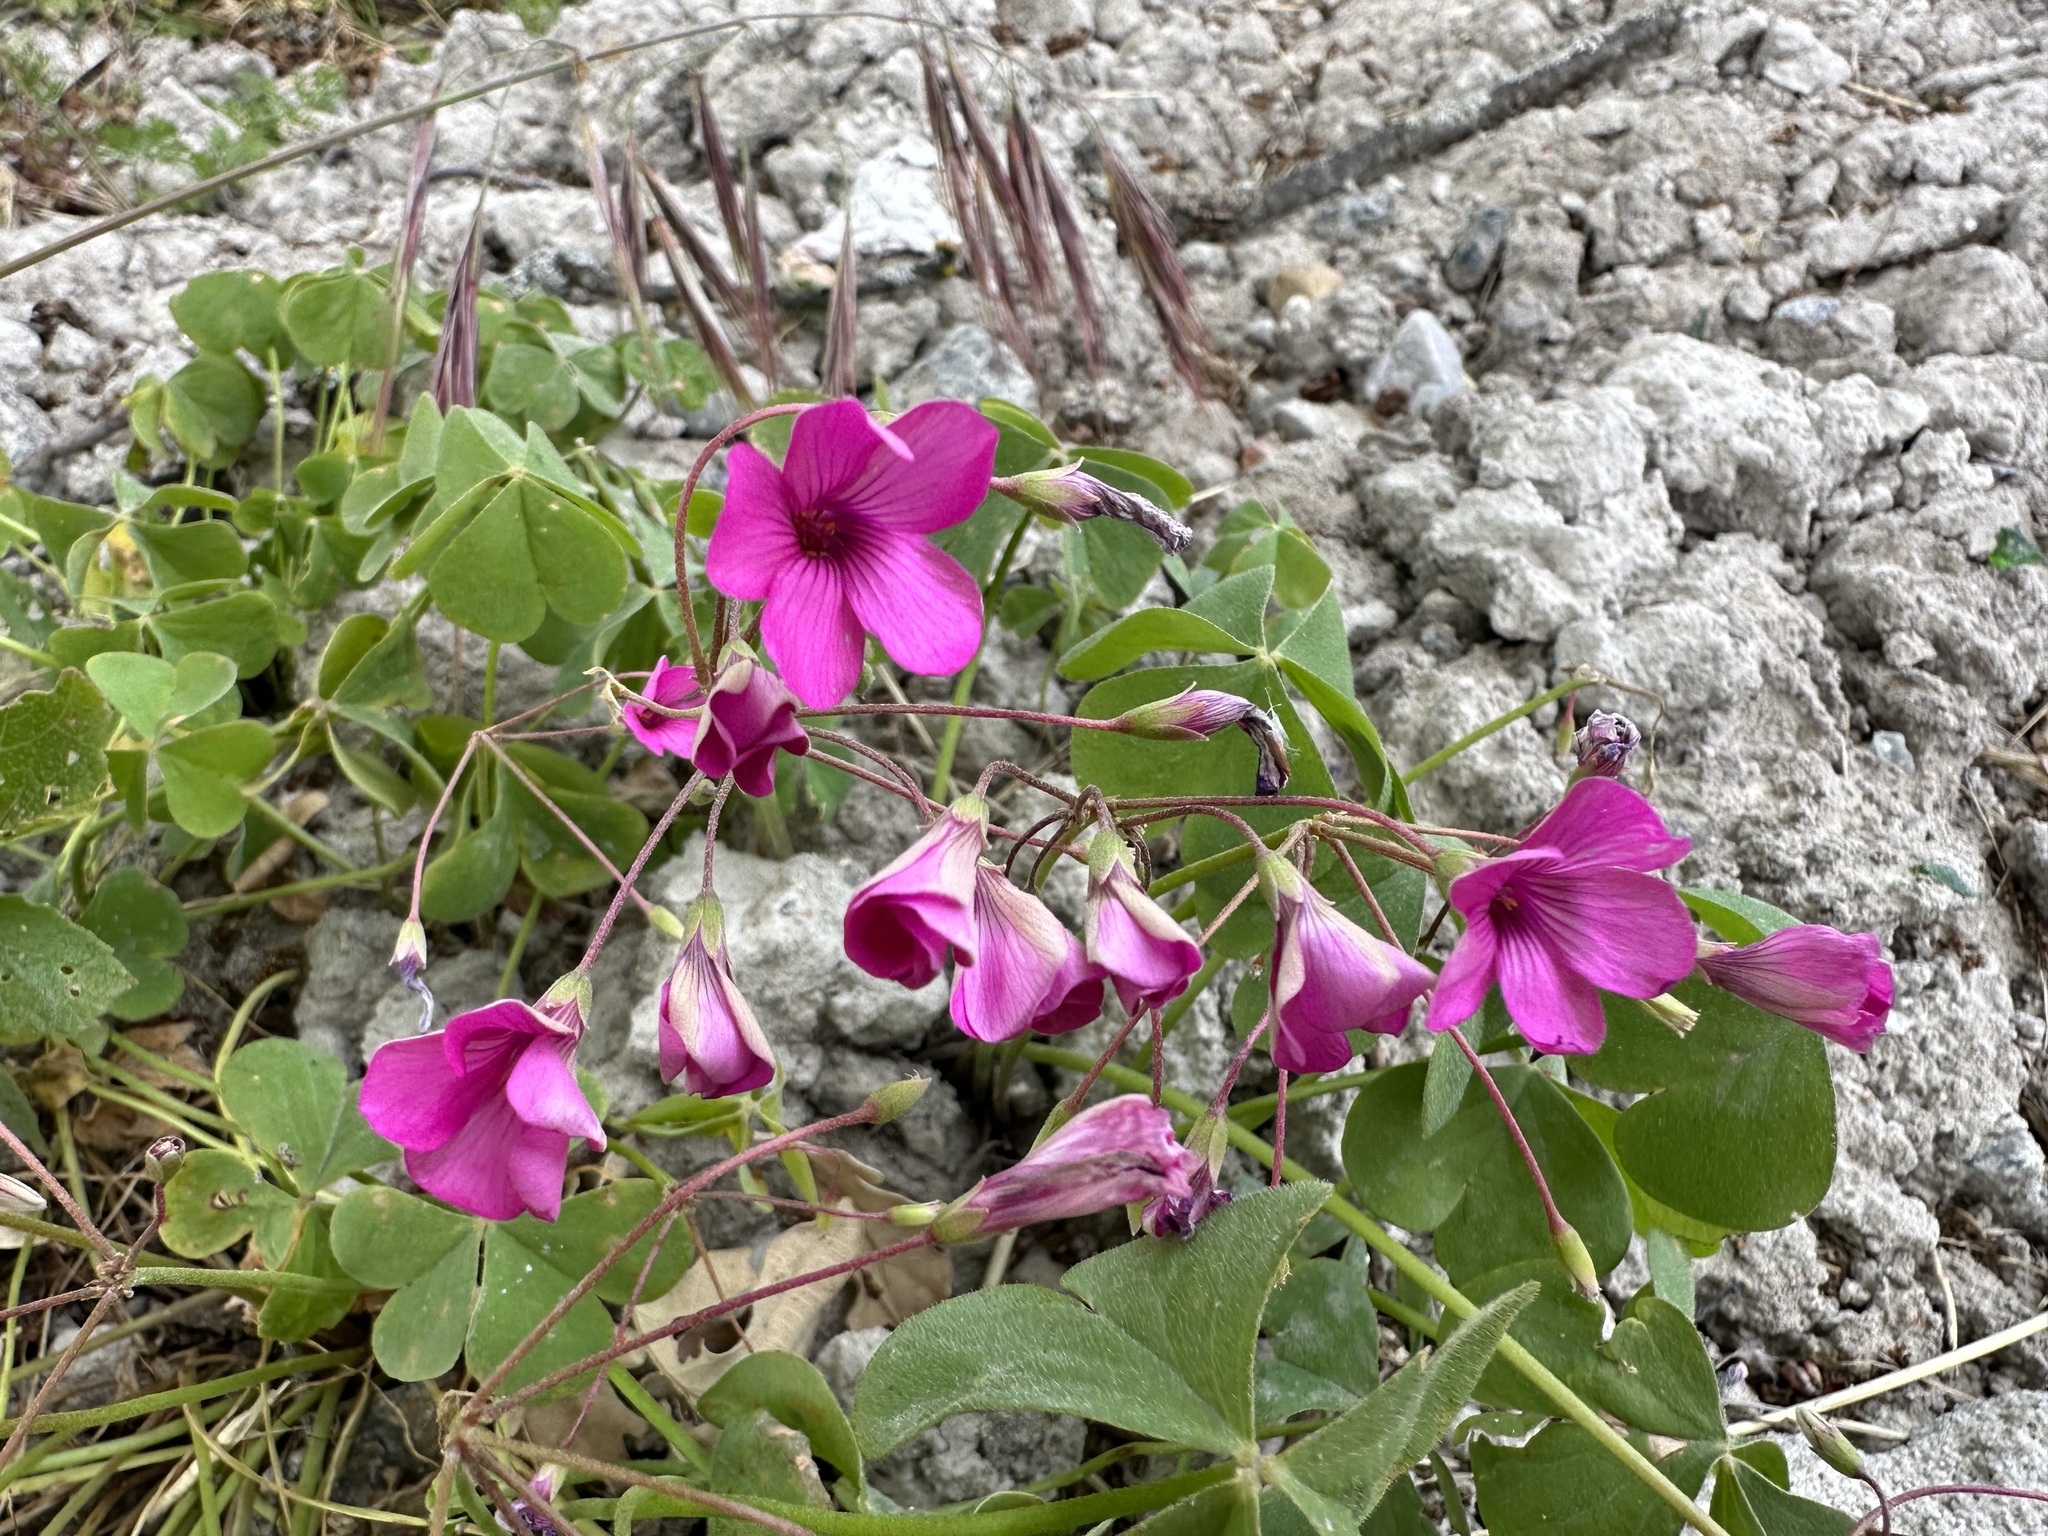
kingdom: Plantae
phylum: Tracheophyta
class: Magnoliopsida
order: Oxalidales
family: Oxalidaceae
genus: Oxalis
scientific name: Oxalis articulata
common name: Pink-sorrel
